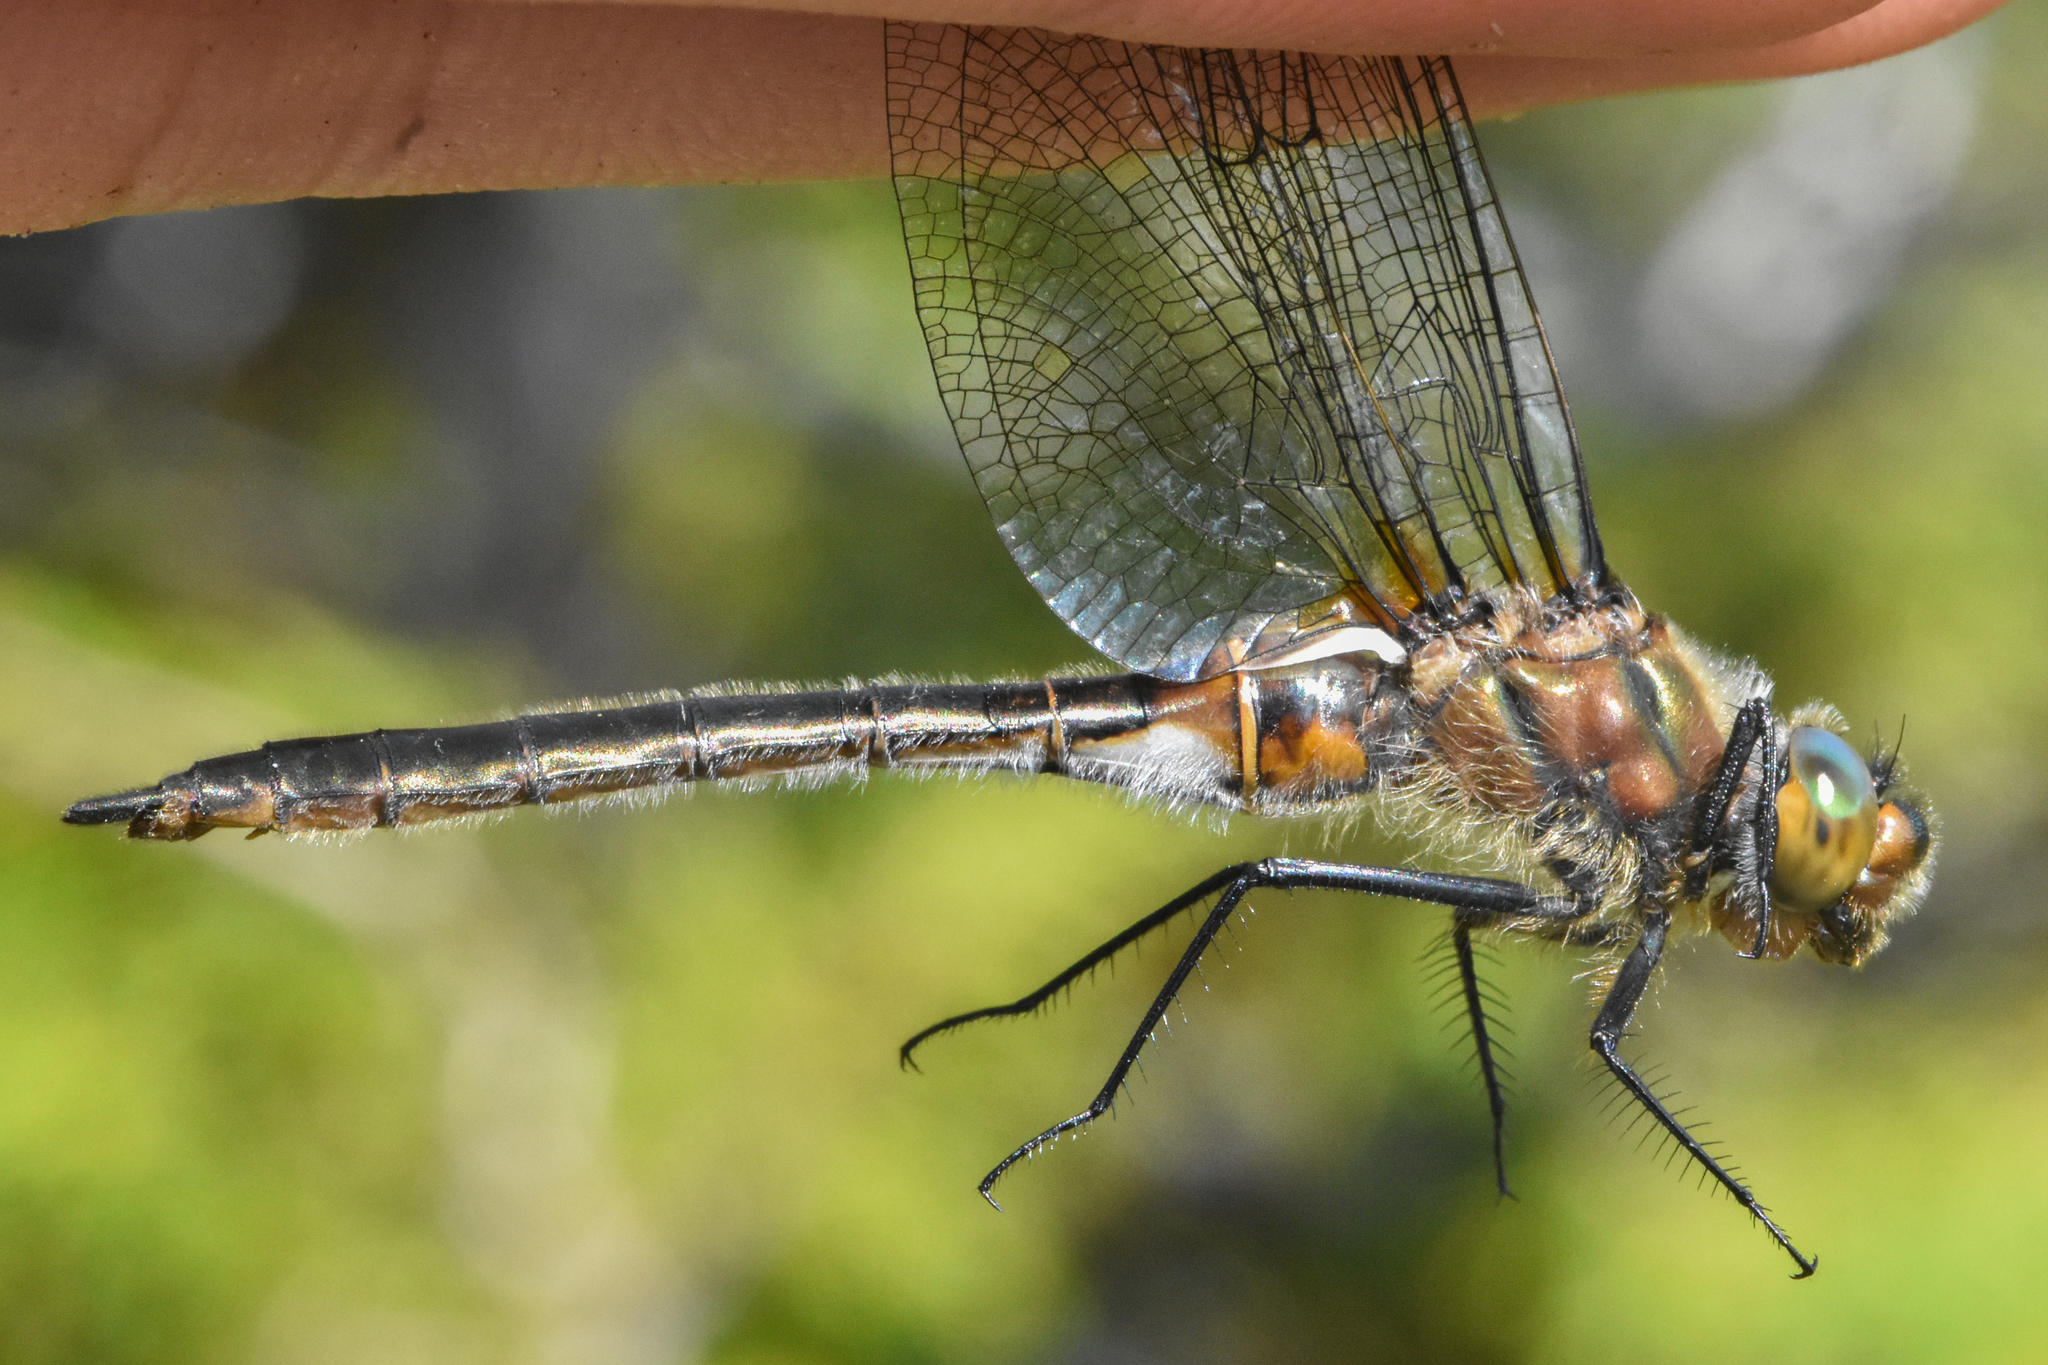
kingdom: Animalia
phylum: Arthropoda
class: Insecta
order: Odonata
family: Corduliidae
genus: Cordulia
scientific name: Cordulia shurtleffii
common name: American emerald
